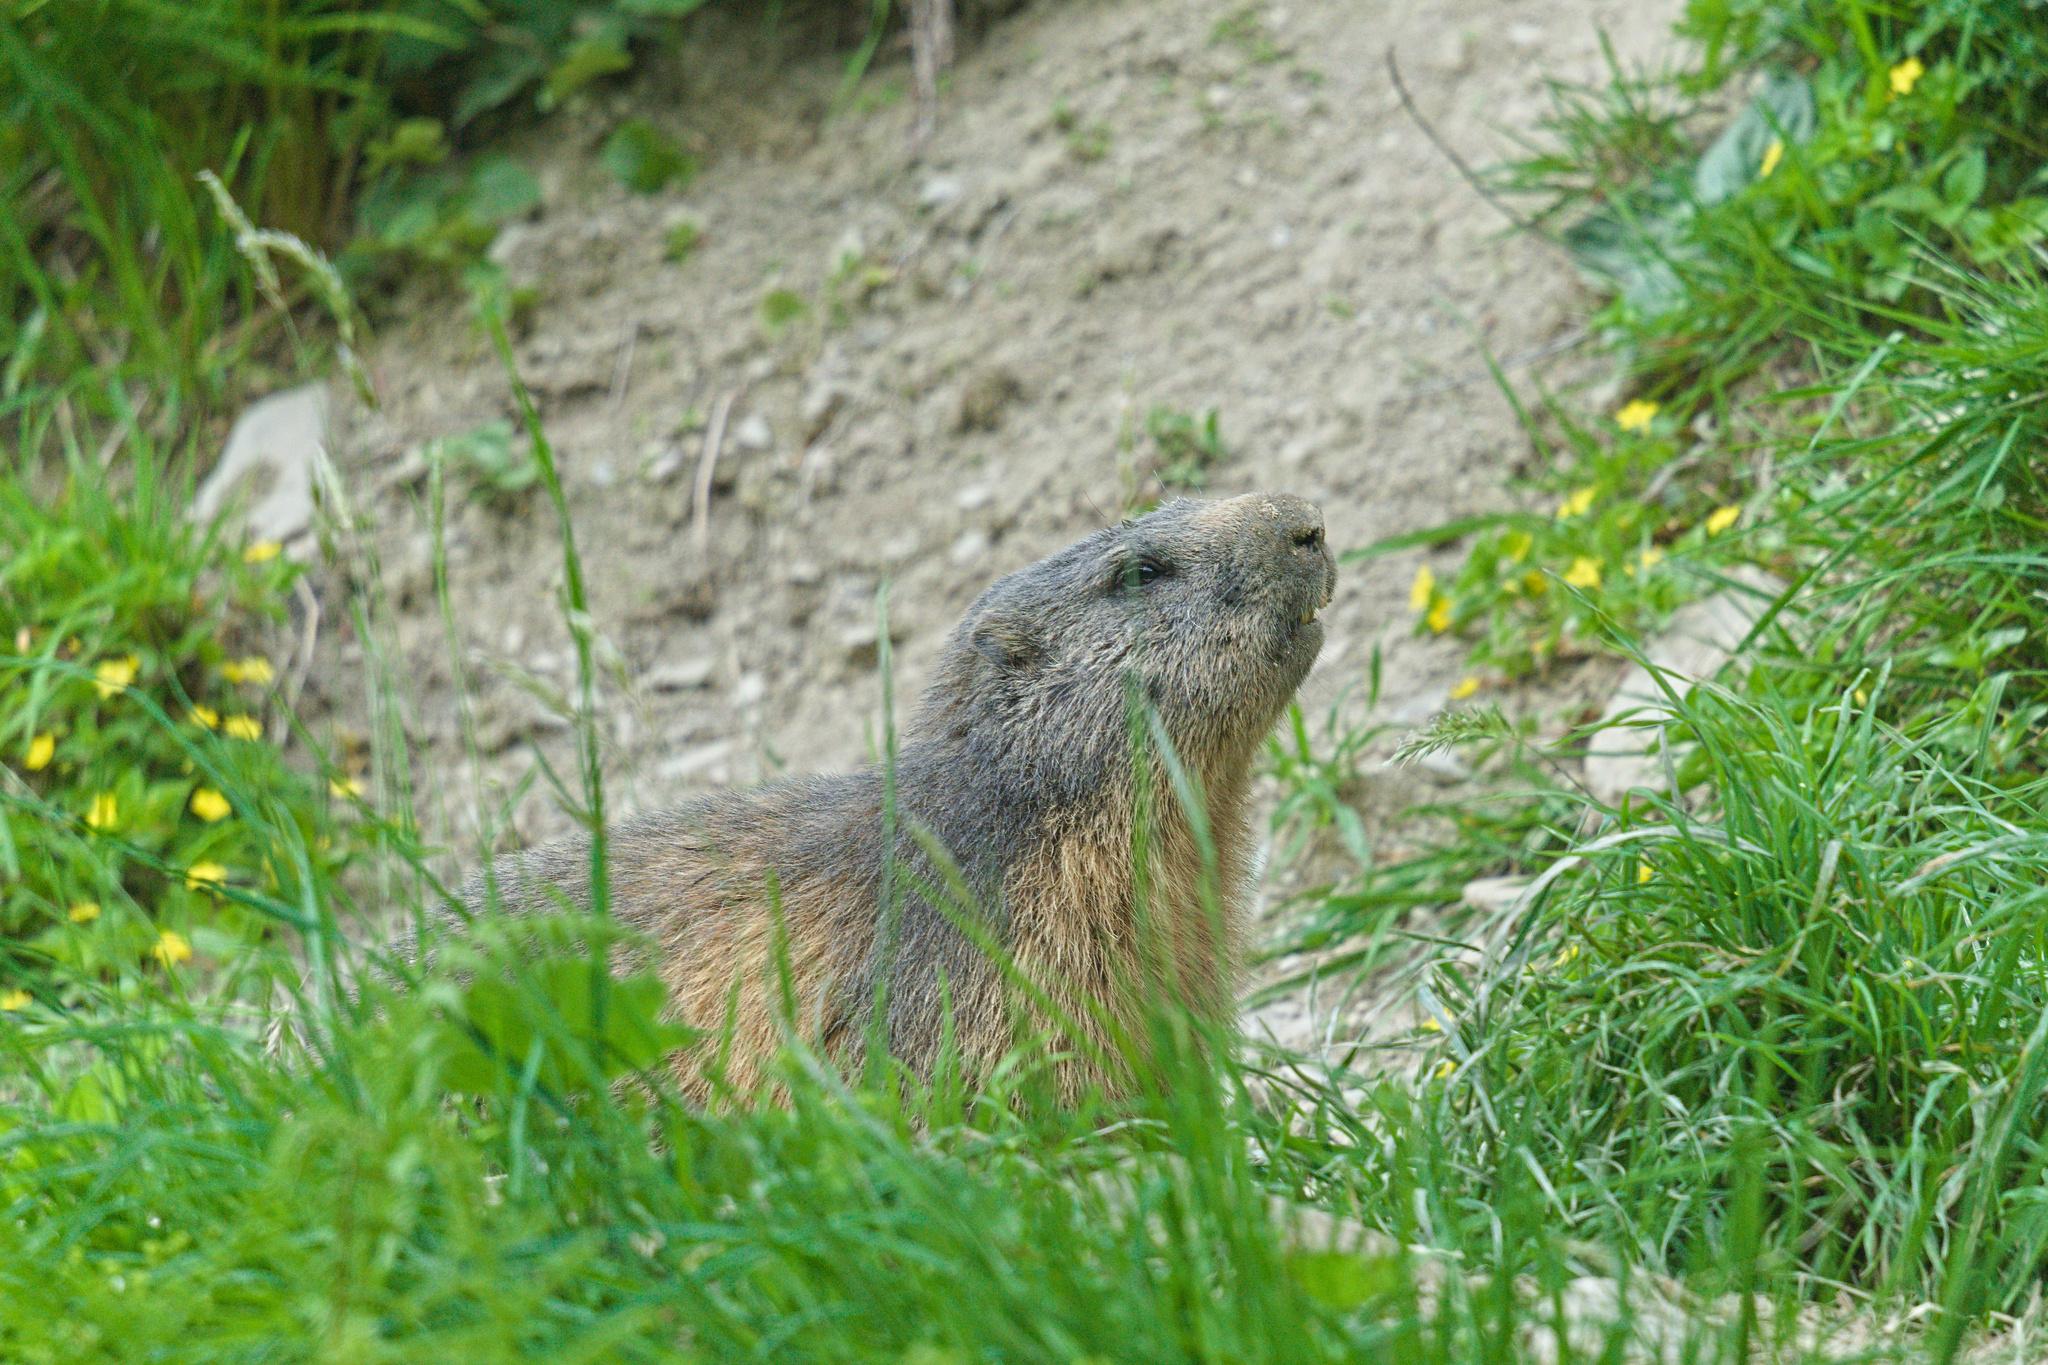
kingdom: Animalia
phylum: Chordata
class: Mammalia
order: Rodentia
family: Sciuridae
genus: Marmota
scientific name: Marmota marmota
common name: Alpine marmot
